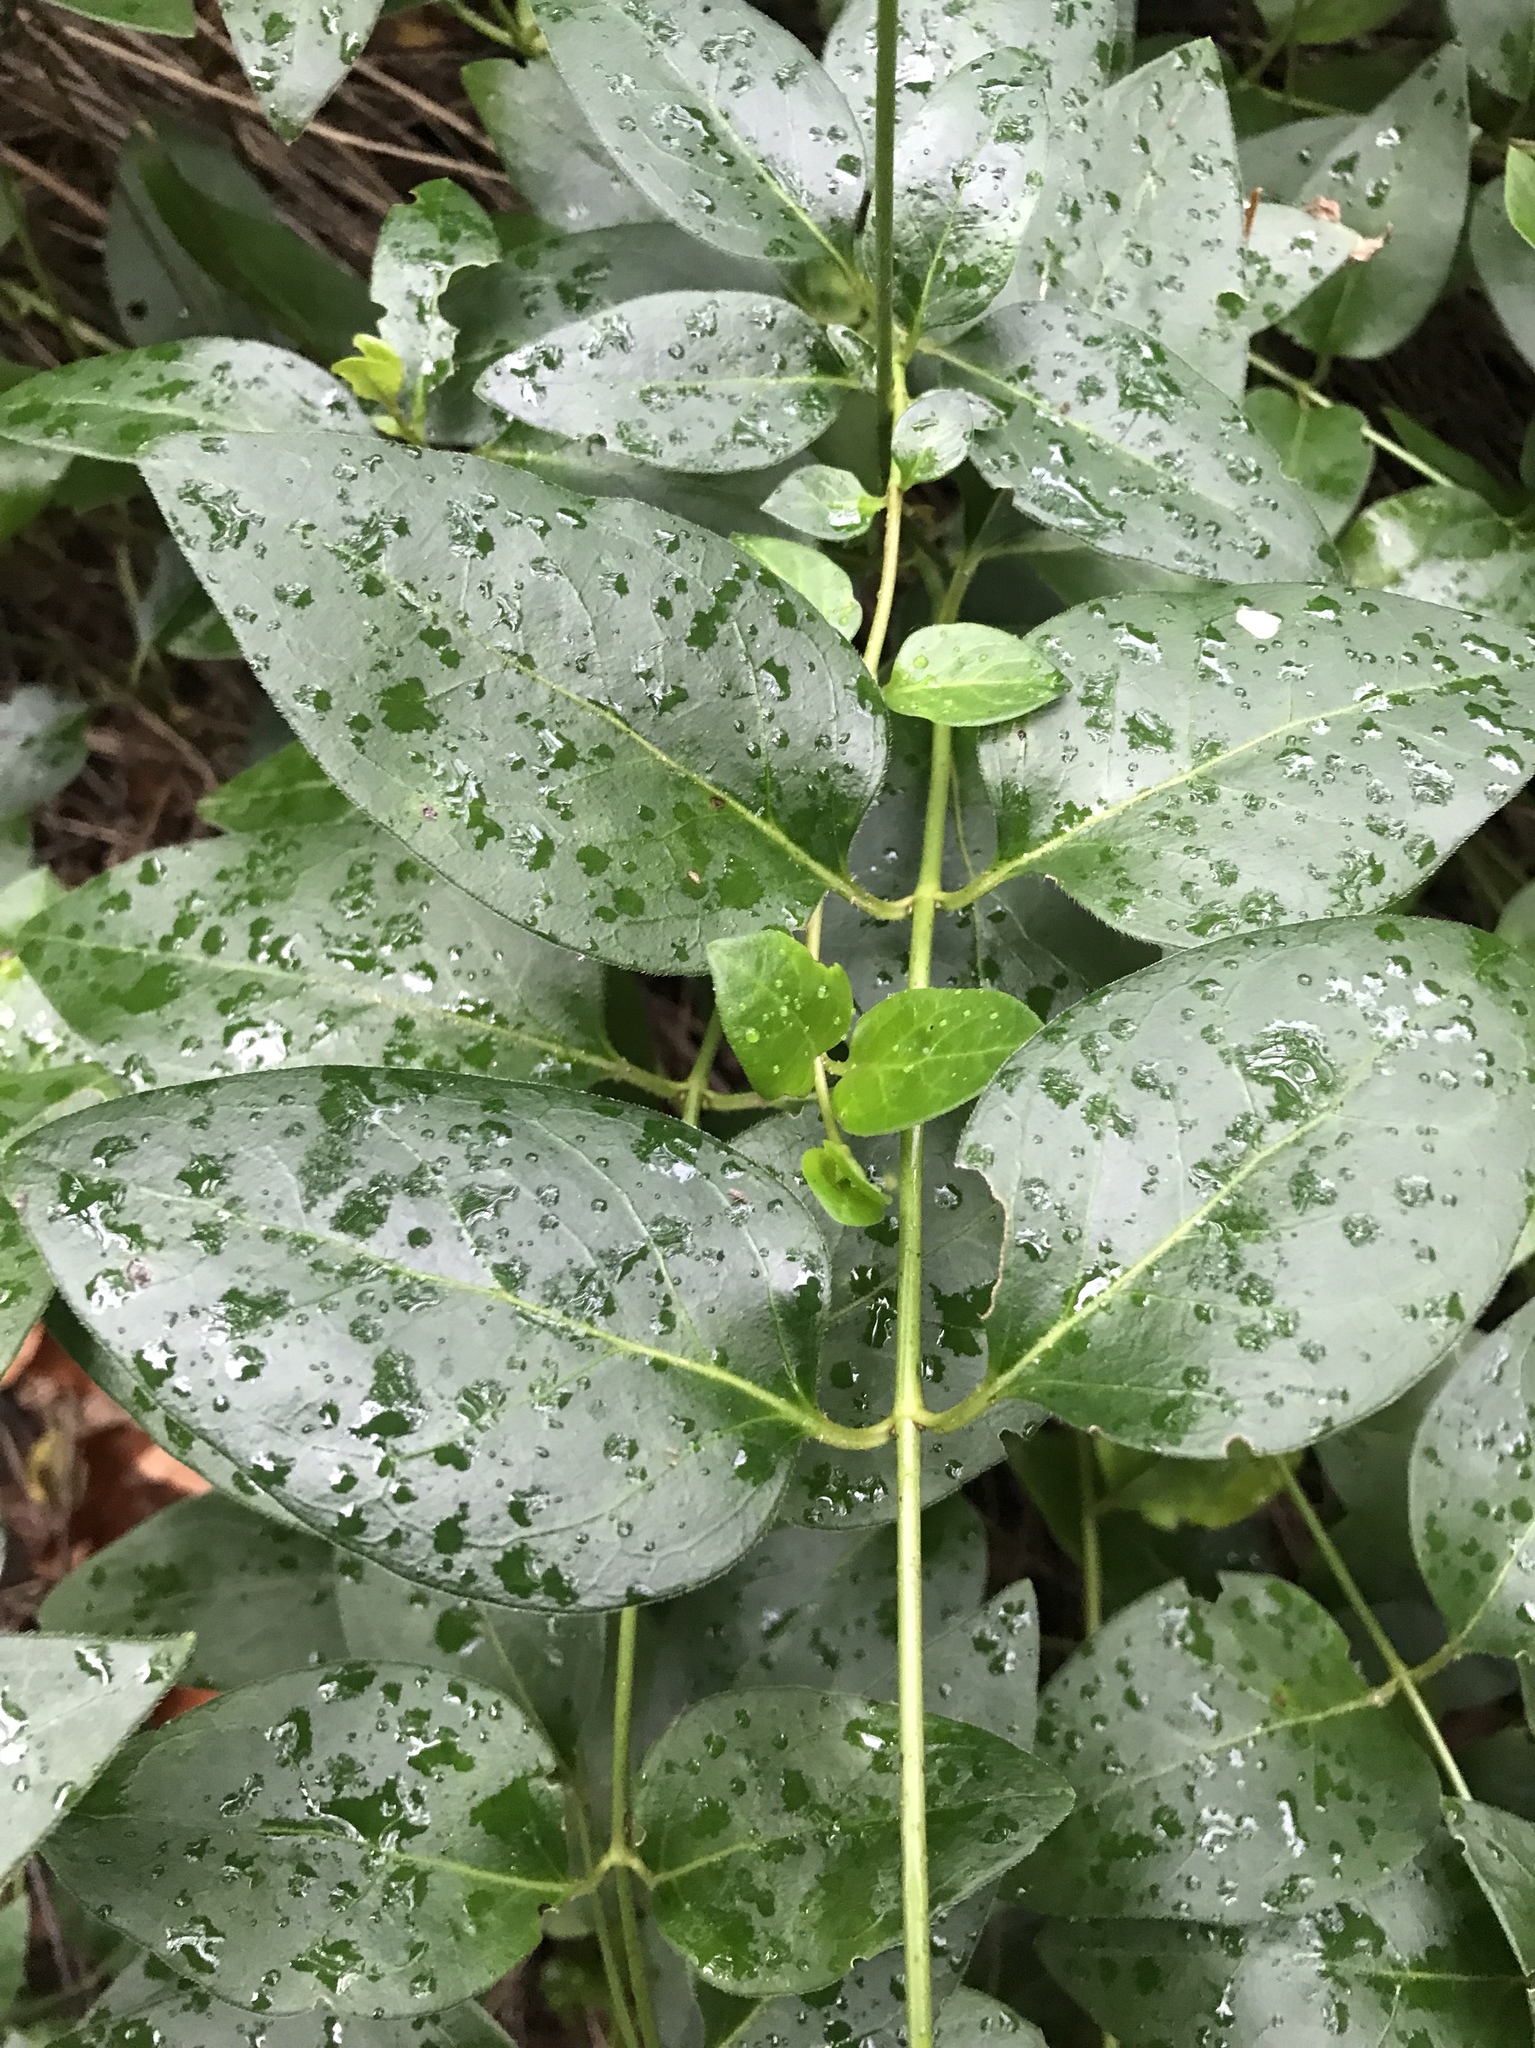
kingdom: Plantae
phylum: Tracheophyta
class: Magnoliopsida
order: Gentianales
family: Apocynaceae
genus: Vinca
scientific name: Vinca major
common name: Greater periwinkle
